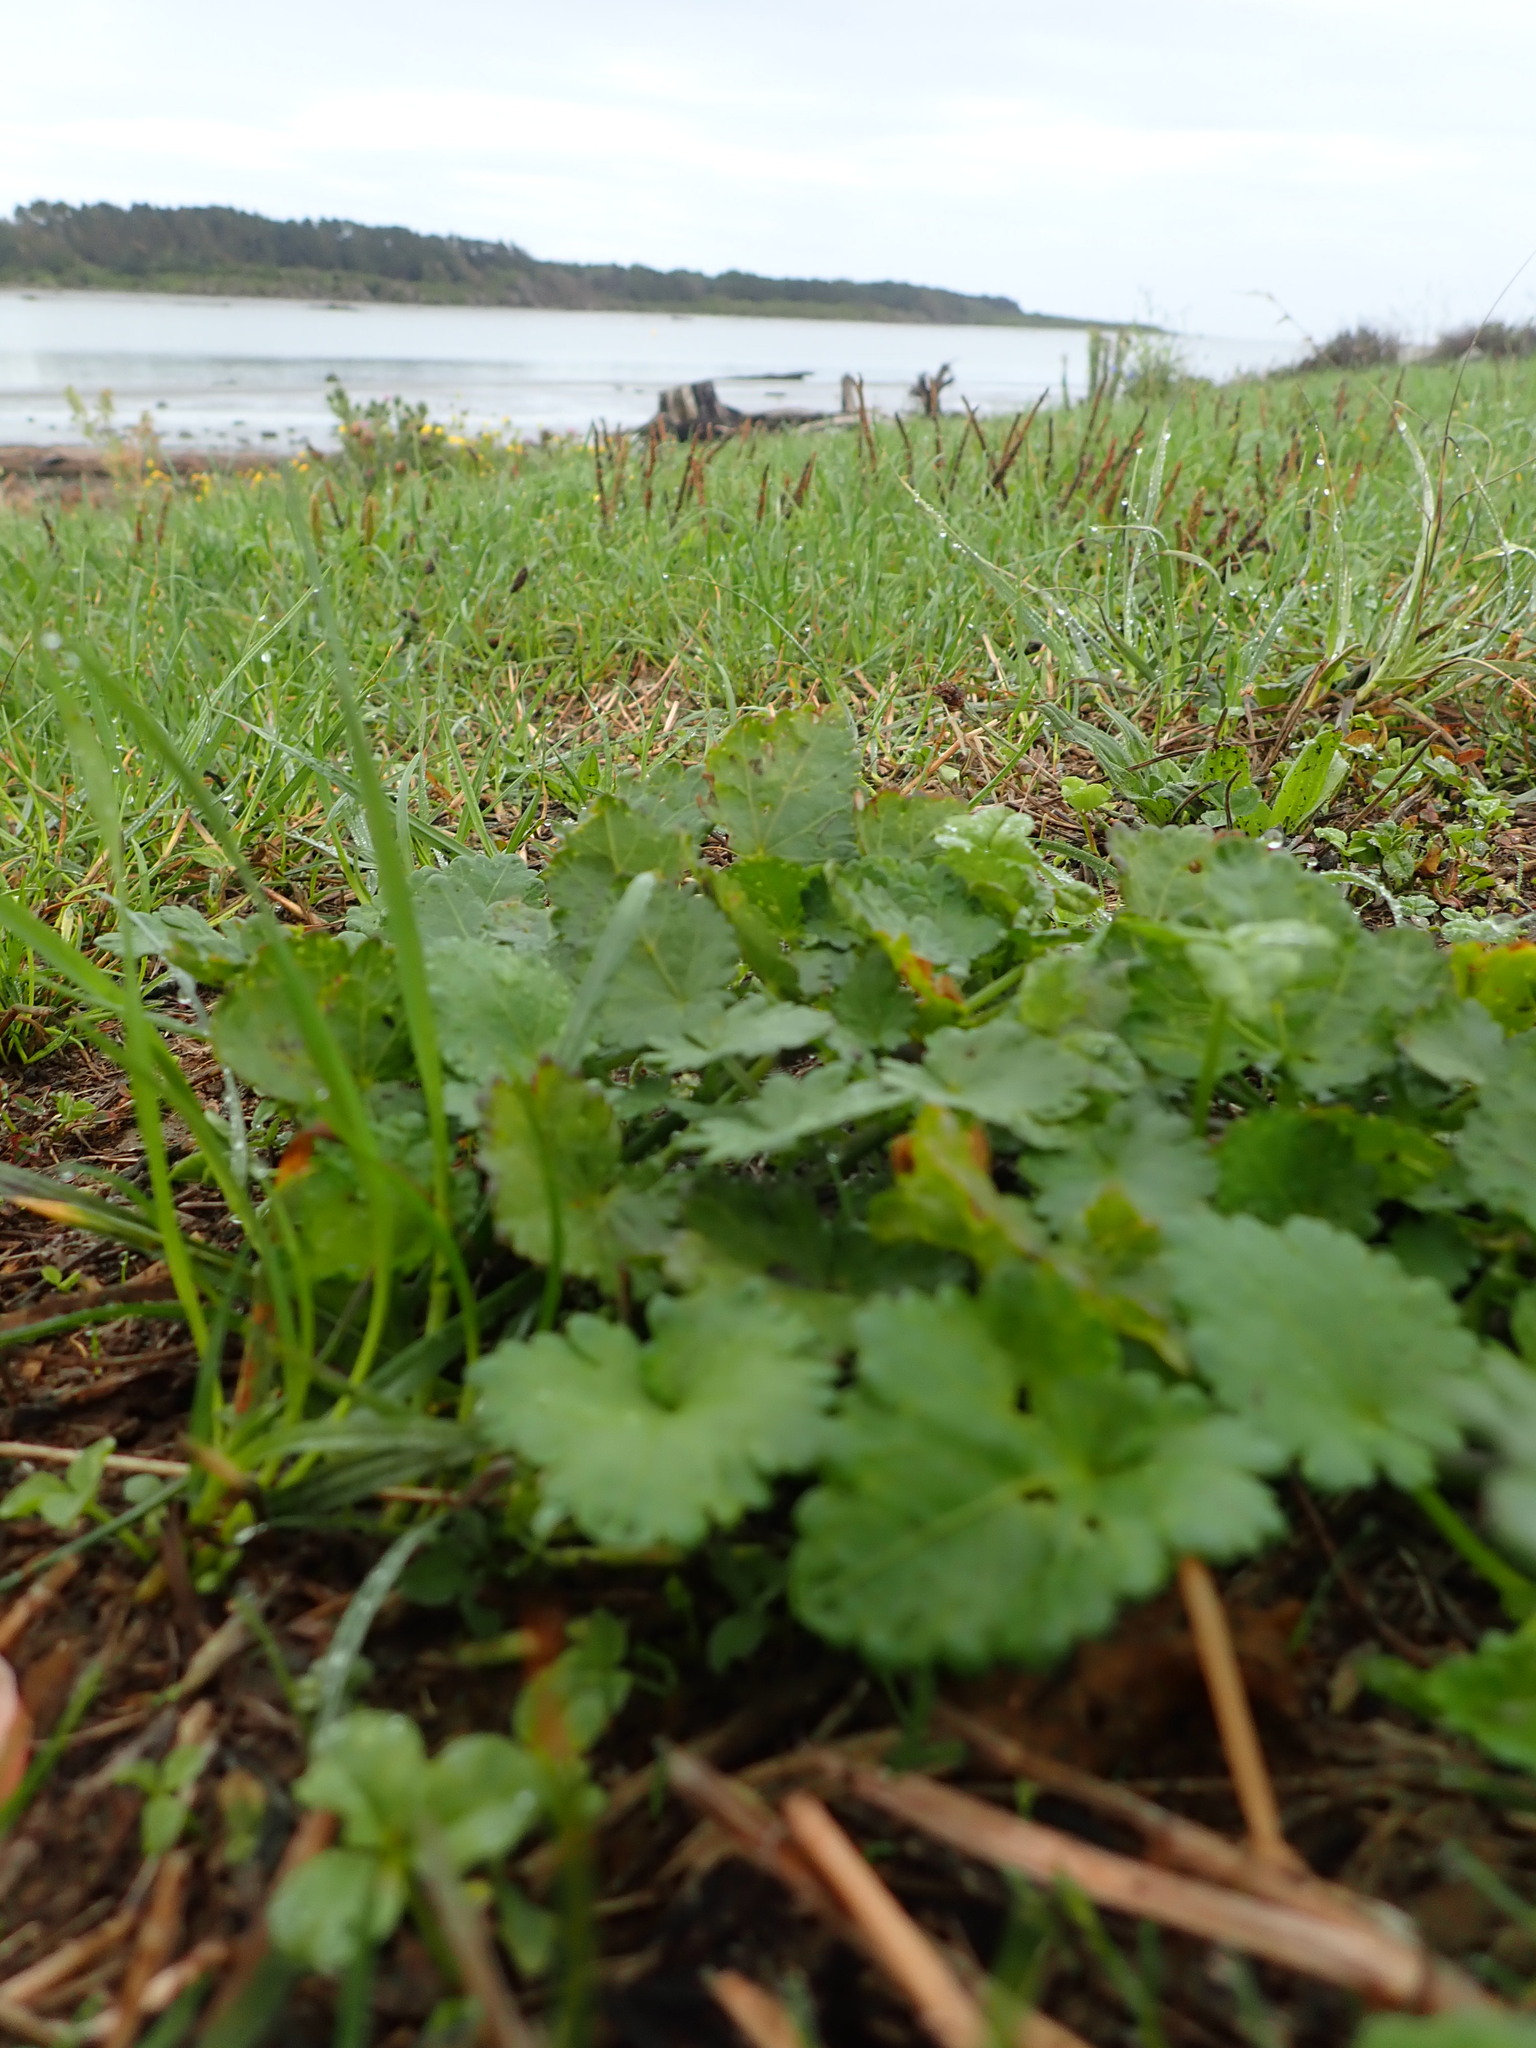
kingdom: Plantae
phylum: Tracheophyta
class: Magnoliopsida
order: Malvales
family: Malvaceae
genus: Modiola
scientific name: Modiola caroliniana
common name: Carolina bristlemallow
